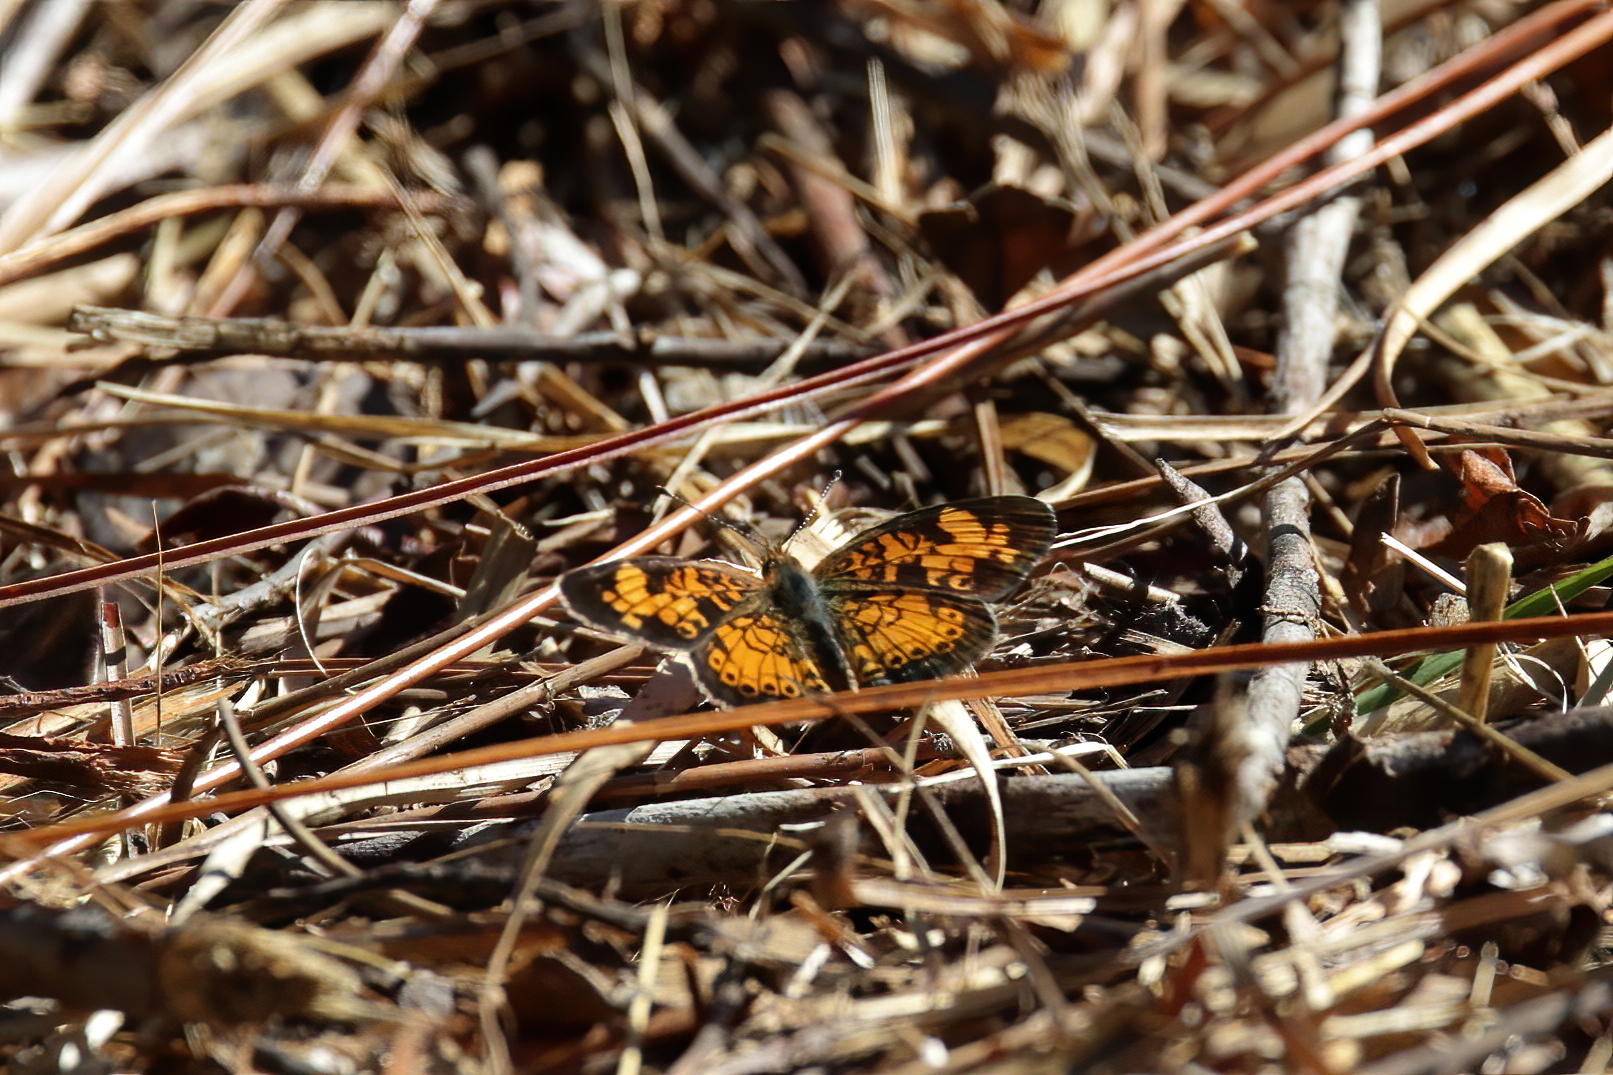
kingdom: Animalia
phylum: Arthropoda
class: Insecta
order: Lepidoptera
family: Nymphalidae
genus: Phyciodes
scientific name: Phyciodes tharos
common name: Pearl crescent
